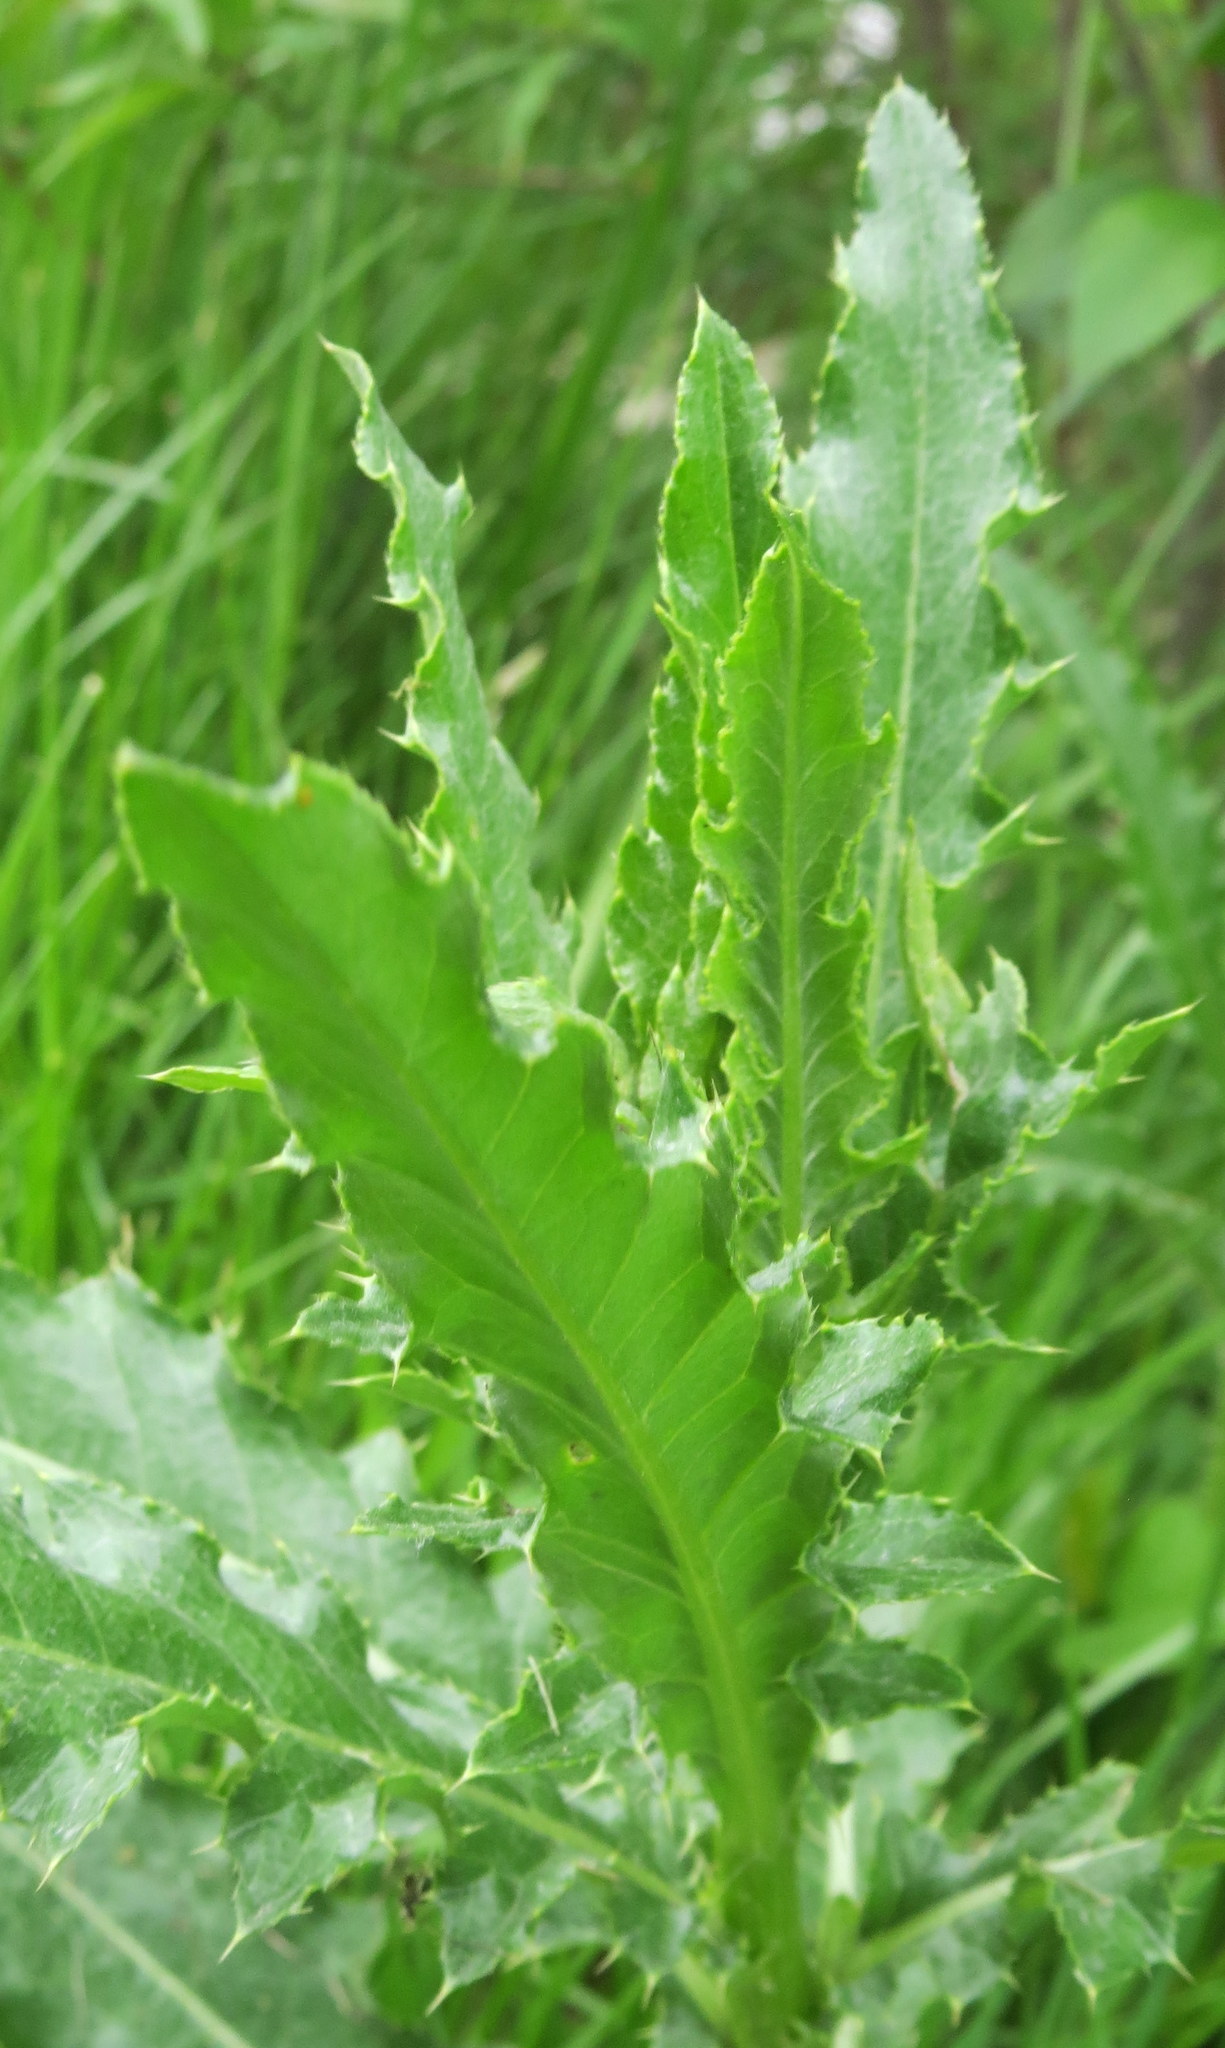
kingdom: Plantae
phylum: Tracheophyta
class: Magnoliopsida
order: Asterales
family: Asteraceae
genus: Cirsium
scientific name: Cirsium arvense
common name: Creeping thistle
